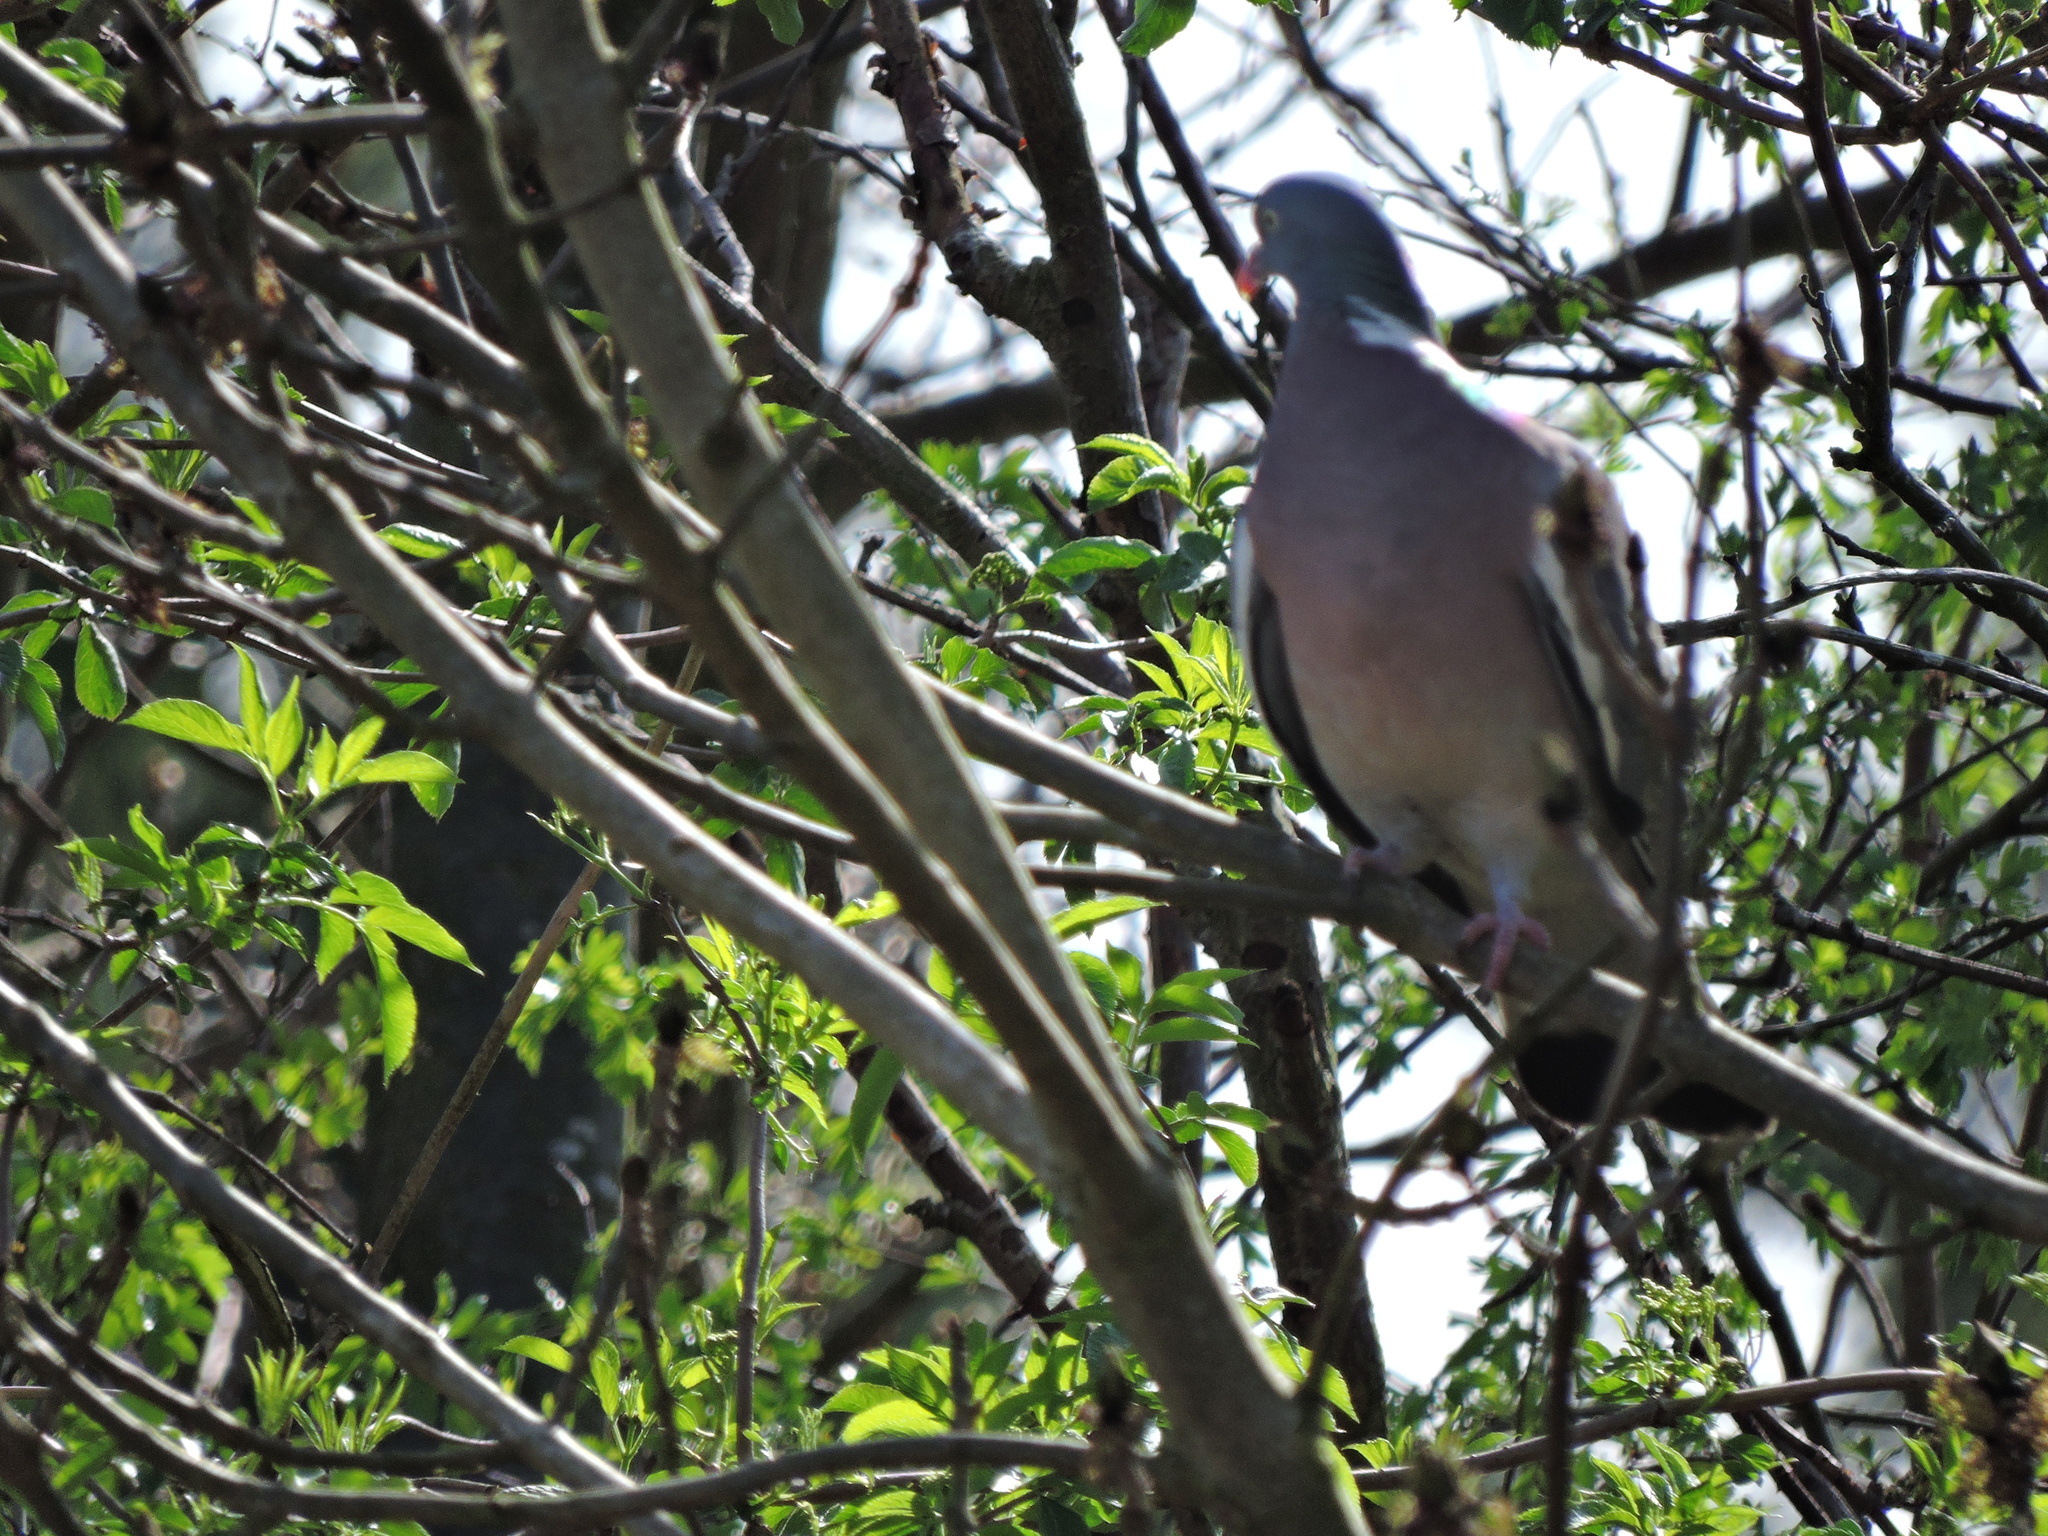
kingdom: Animalia
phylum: Chordata
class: Aves
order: Columbiformes
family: Columbidae
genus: Columba
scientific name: Columba palumbus
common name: Common wood pigeon
